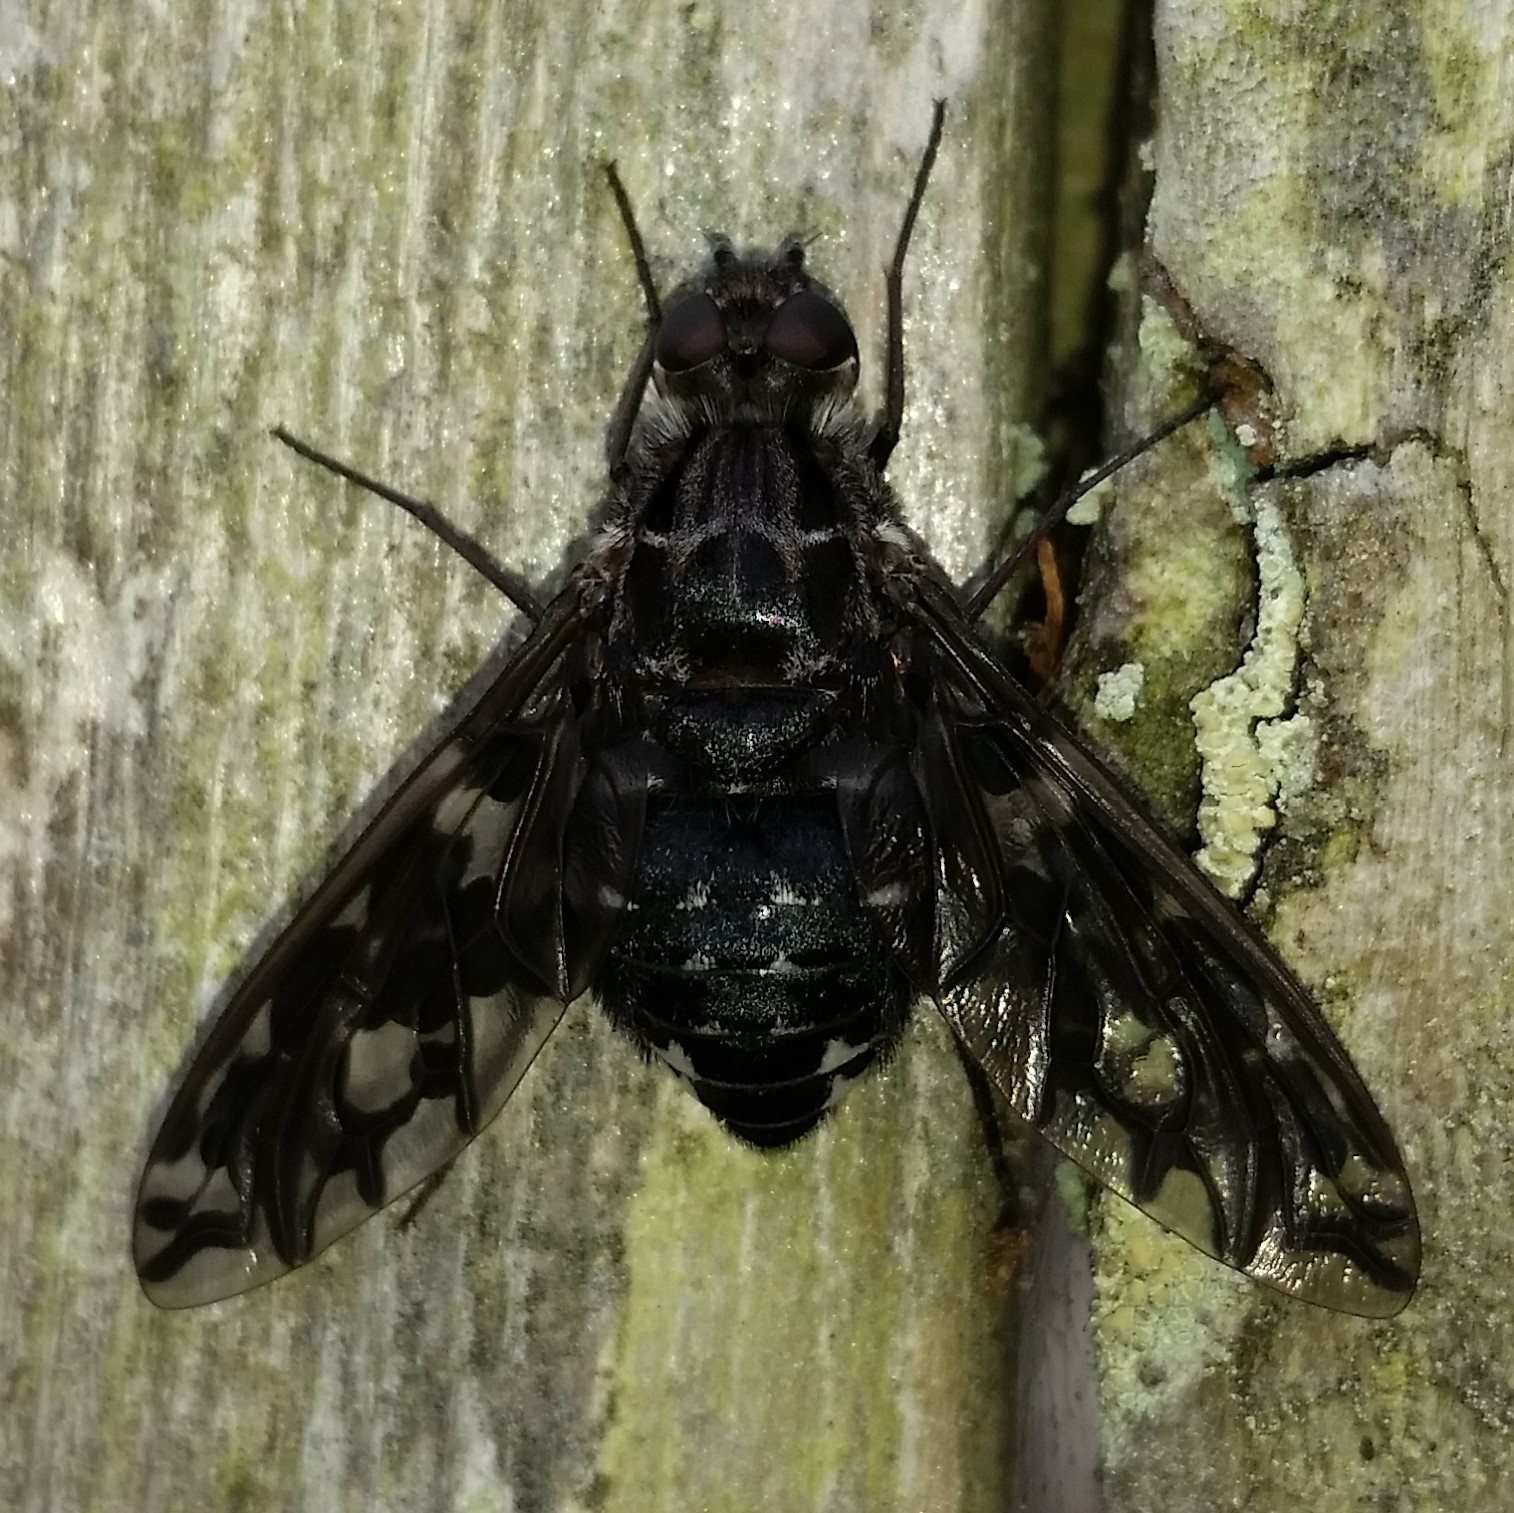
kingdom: Animalia
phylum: Arthropoda
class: Insecta
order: Diptera
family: Bombyliidae
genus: Xenox
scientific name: Xenox tigrinus
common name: Tiger bee fly
